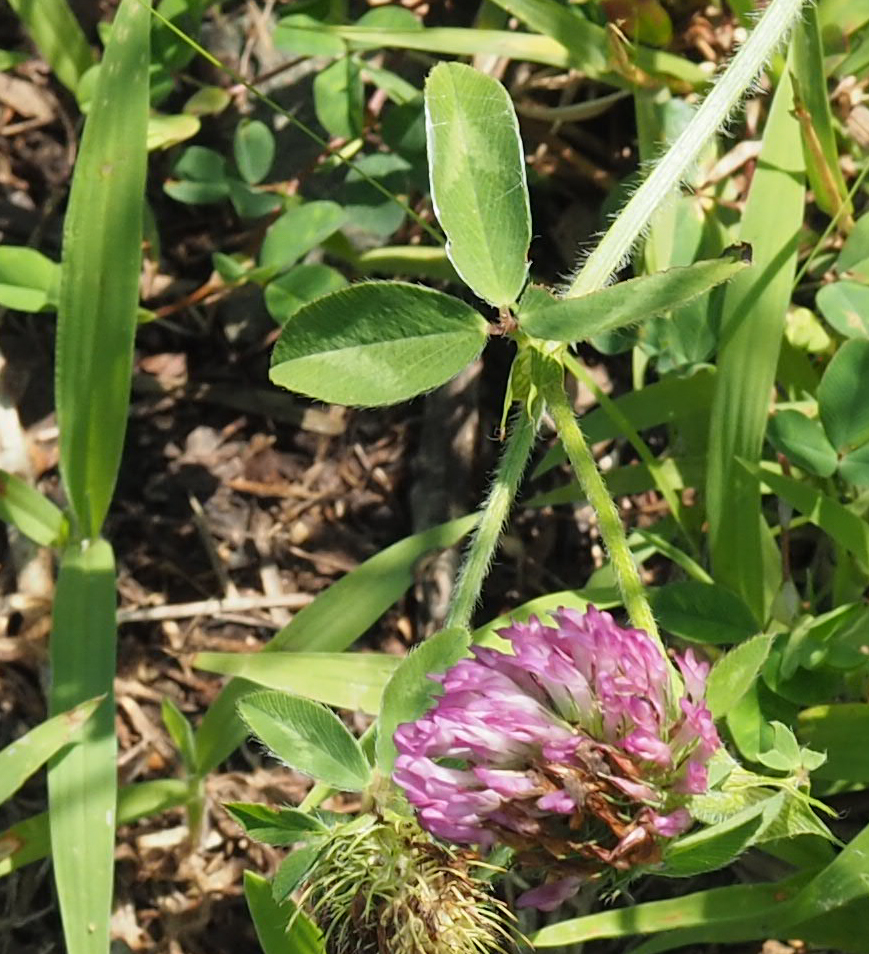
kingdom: Plantae
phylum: Tracheophyta
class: Magnoliopsida
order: Fabales
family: Fabaceae
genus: Trifolium
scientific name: Trifolium pratense
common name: Red clover
